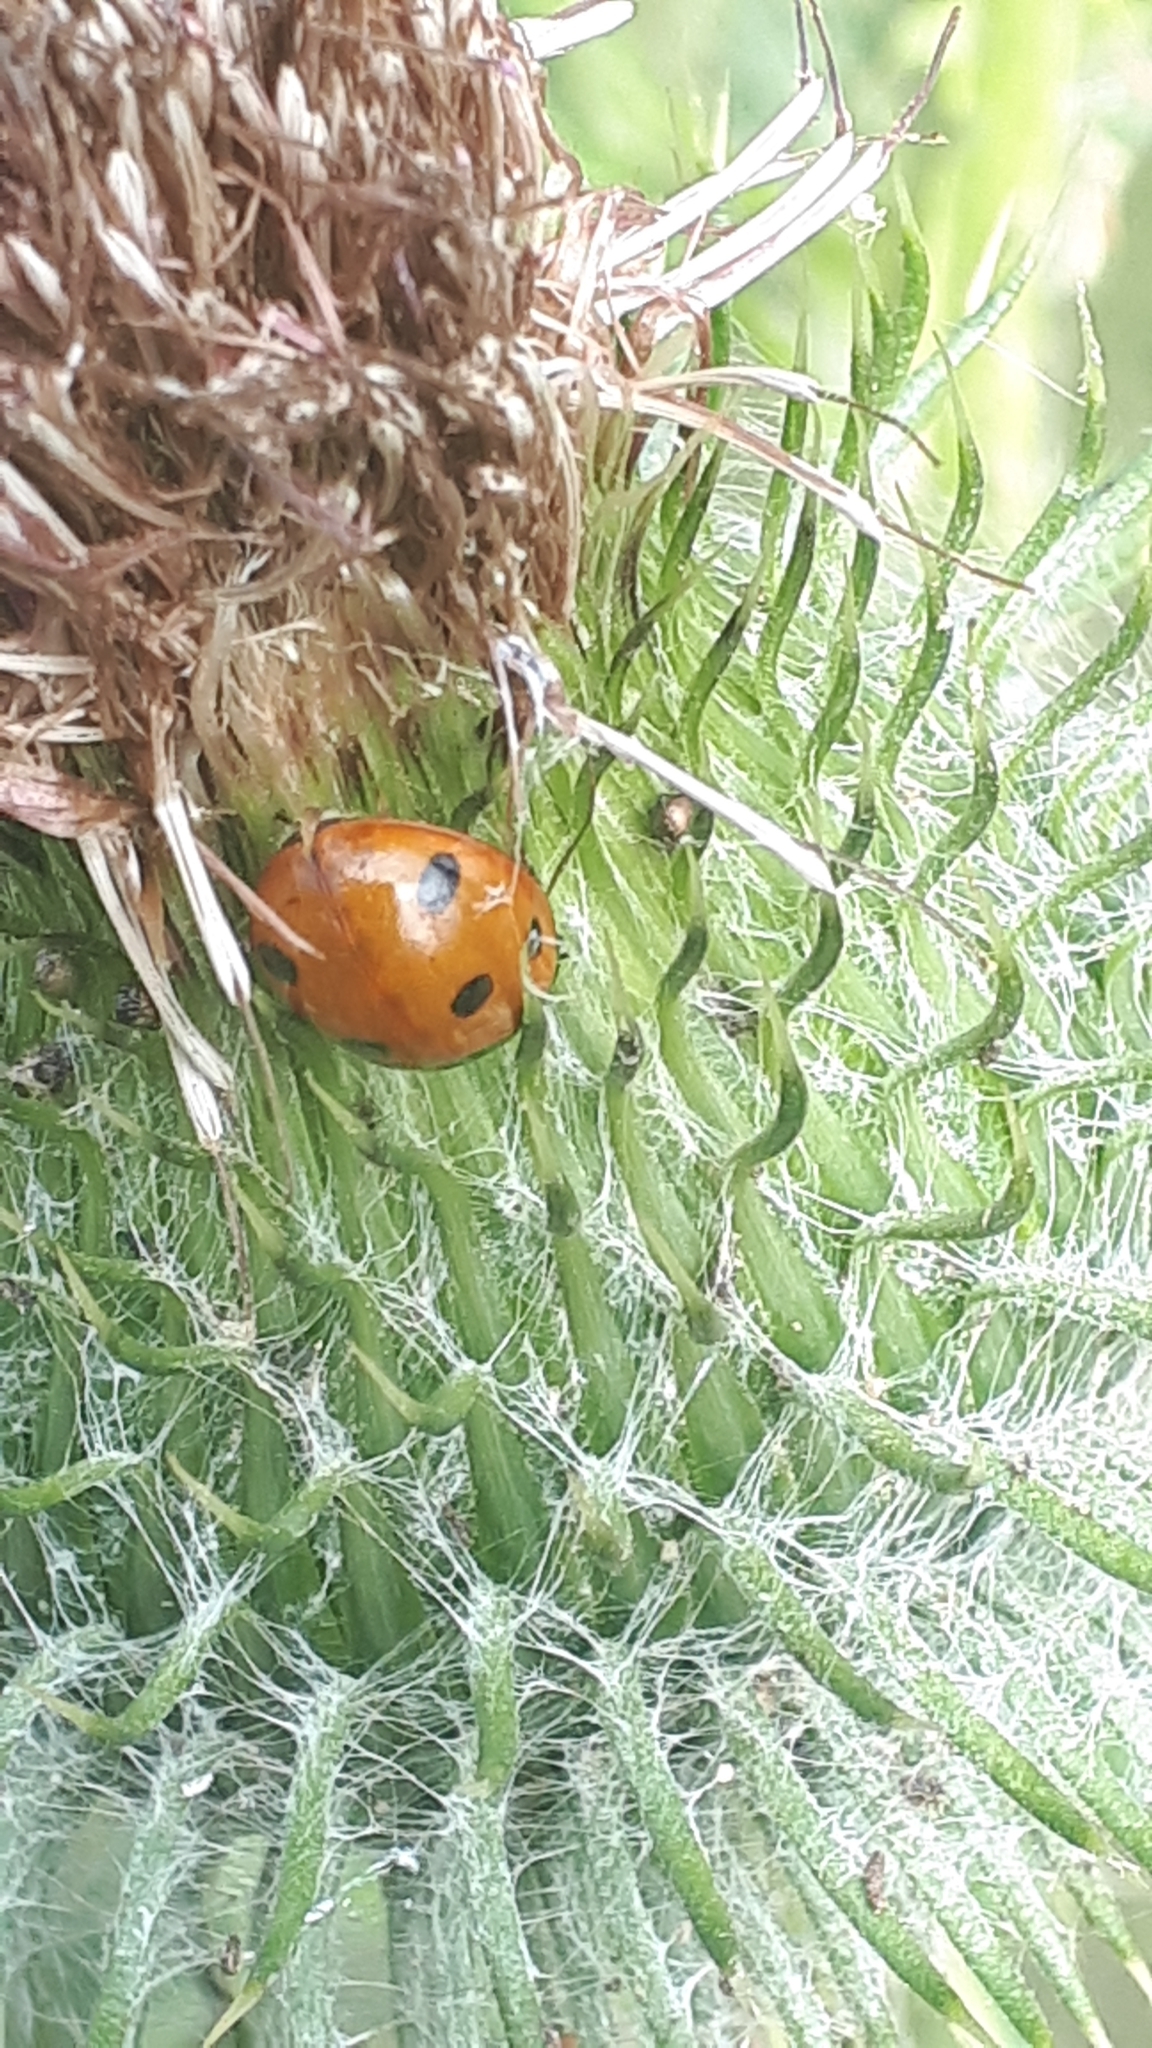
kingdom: Animalia
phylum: Arthropoda
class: Insecta
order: Coleoptera
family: Coccinellidae
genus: Coccinella
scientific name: Coccinella septempunctata
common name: Sevenspotted lady beetle
